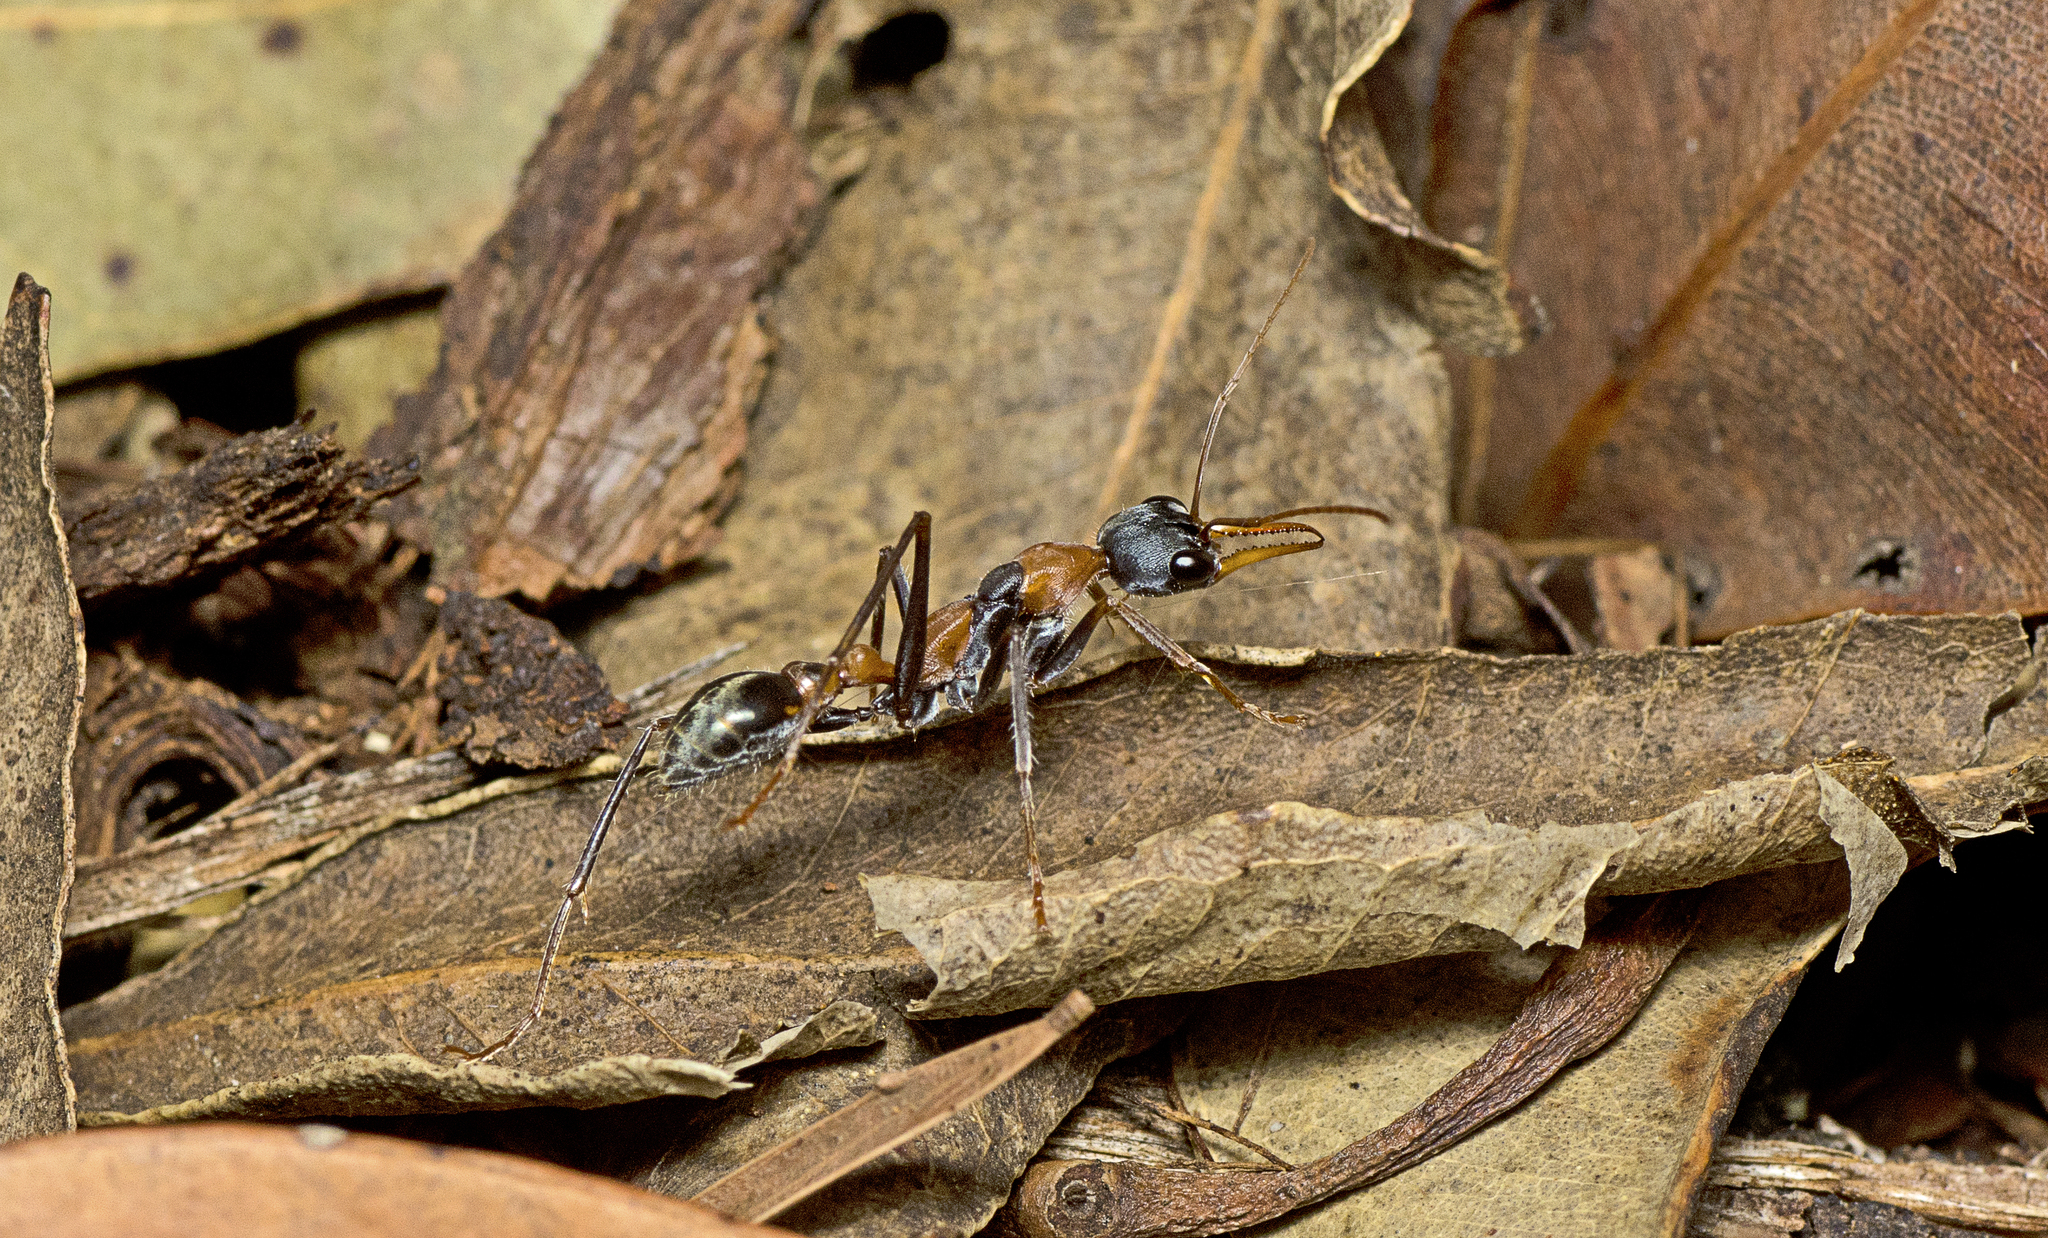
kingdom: Animalia
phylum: Arthropoda
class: Insecta
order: Hymenoptera
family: Formicidae
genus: Myrmecia
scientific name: Myrmecia nigrocincta
